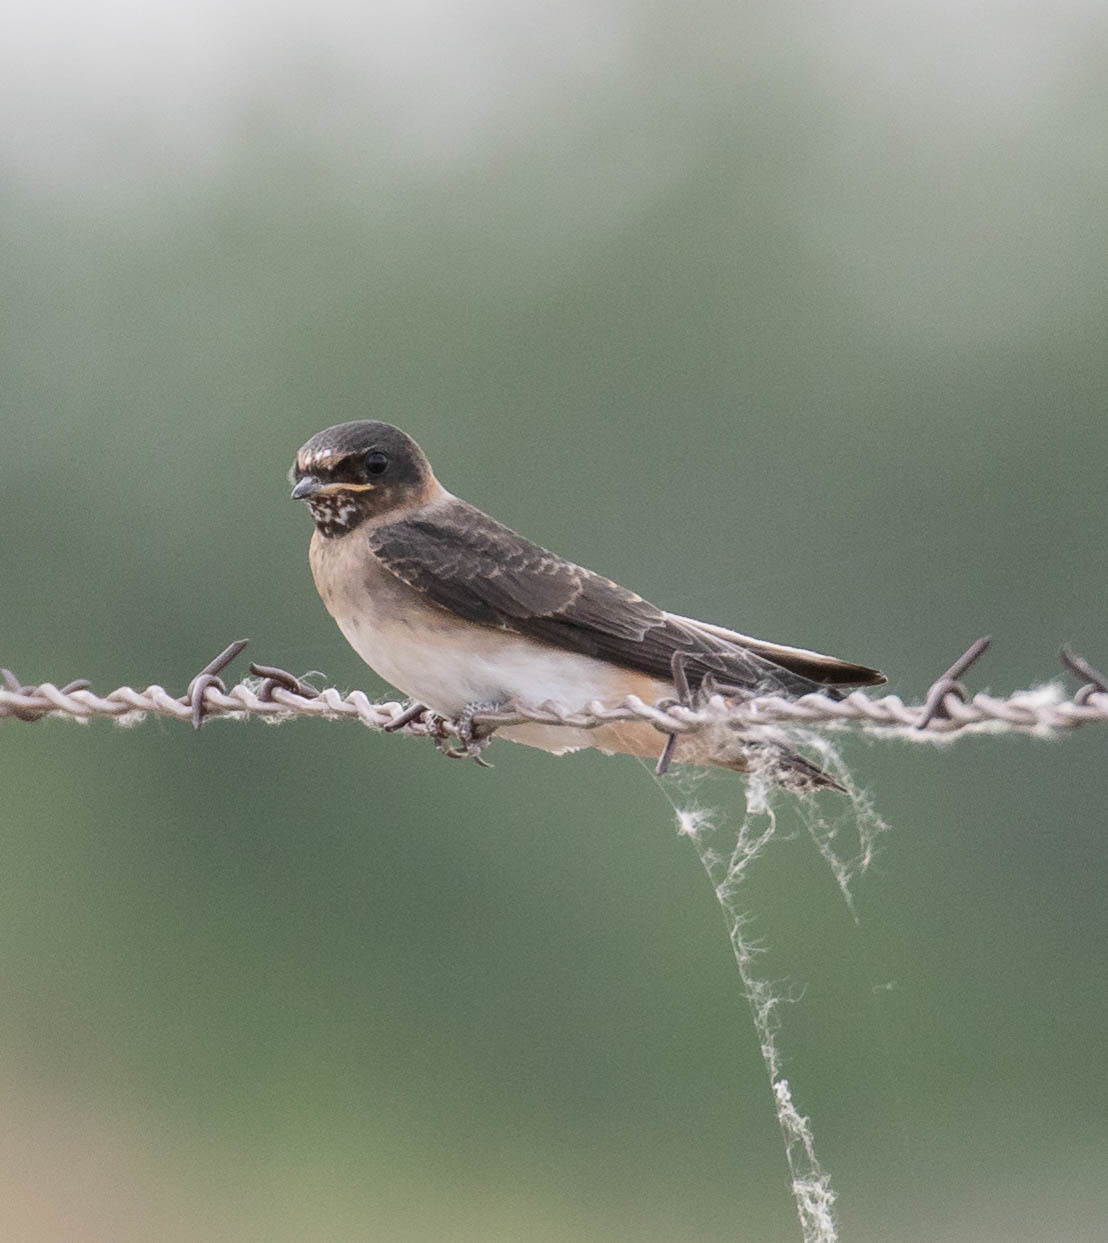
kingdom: Animalia
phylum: Chordata
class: Aves
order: Passeriformes
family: Hirundinidae
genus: Petrochelidon
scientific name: Petrochelidon pyrrhonota
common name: American cliff swallow
